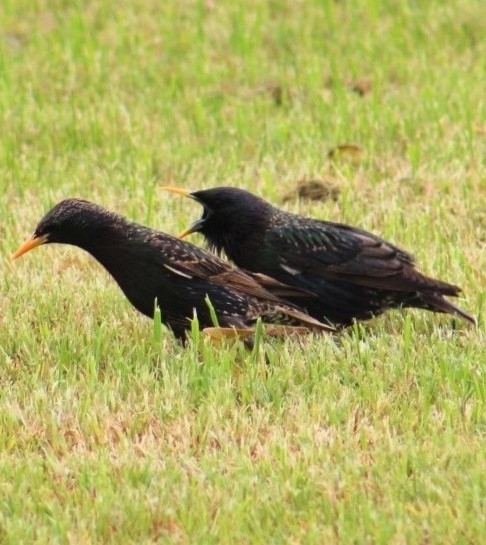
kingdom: Animalia
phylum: Chordata
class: Aves
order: Passeriformes
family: Sturnidae
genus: Sturnus
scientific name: Sturnus vulgaris
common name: Common starling
